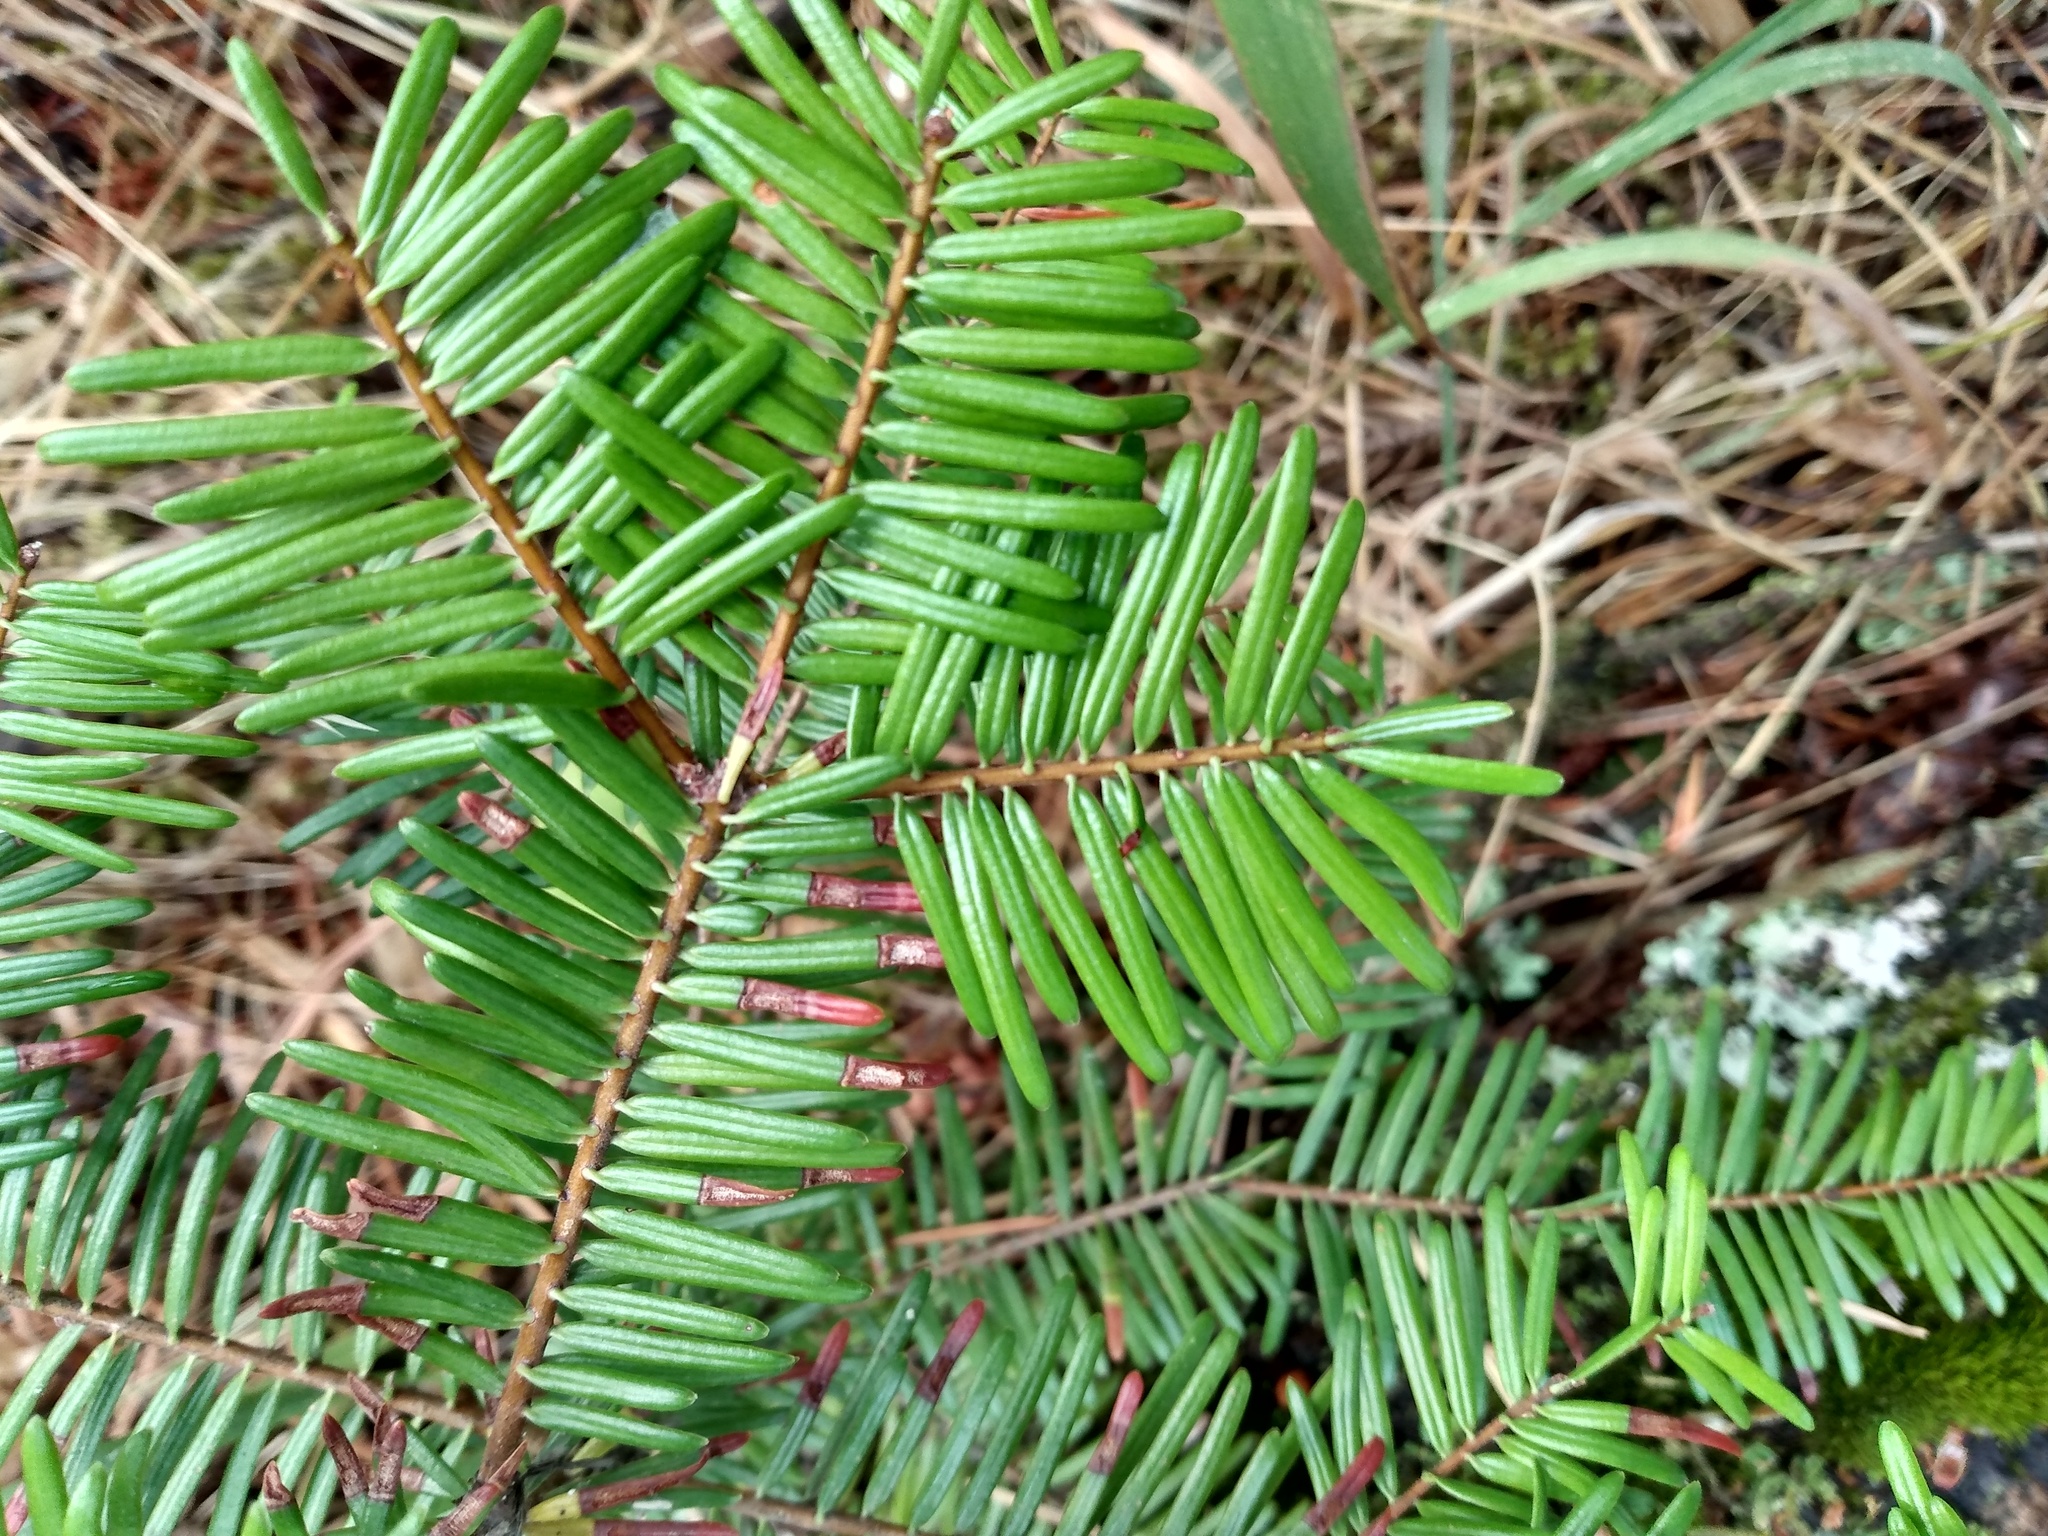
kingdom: Plantae
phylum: Tracheophyta
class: Pinopsida
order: Pinales
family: Pinaceae
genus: Abies
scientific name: Abies grandis
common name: Giant fir
